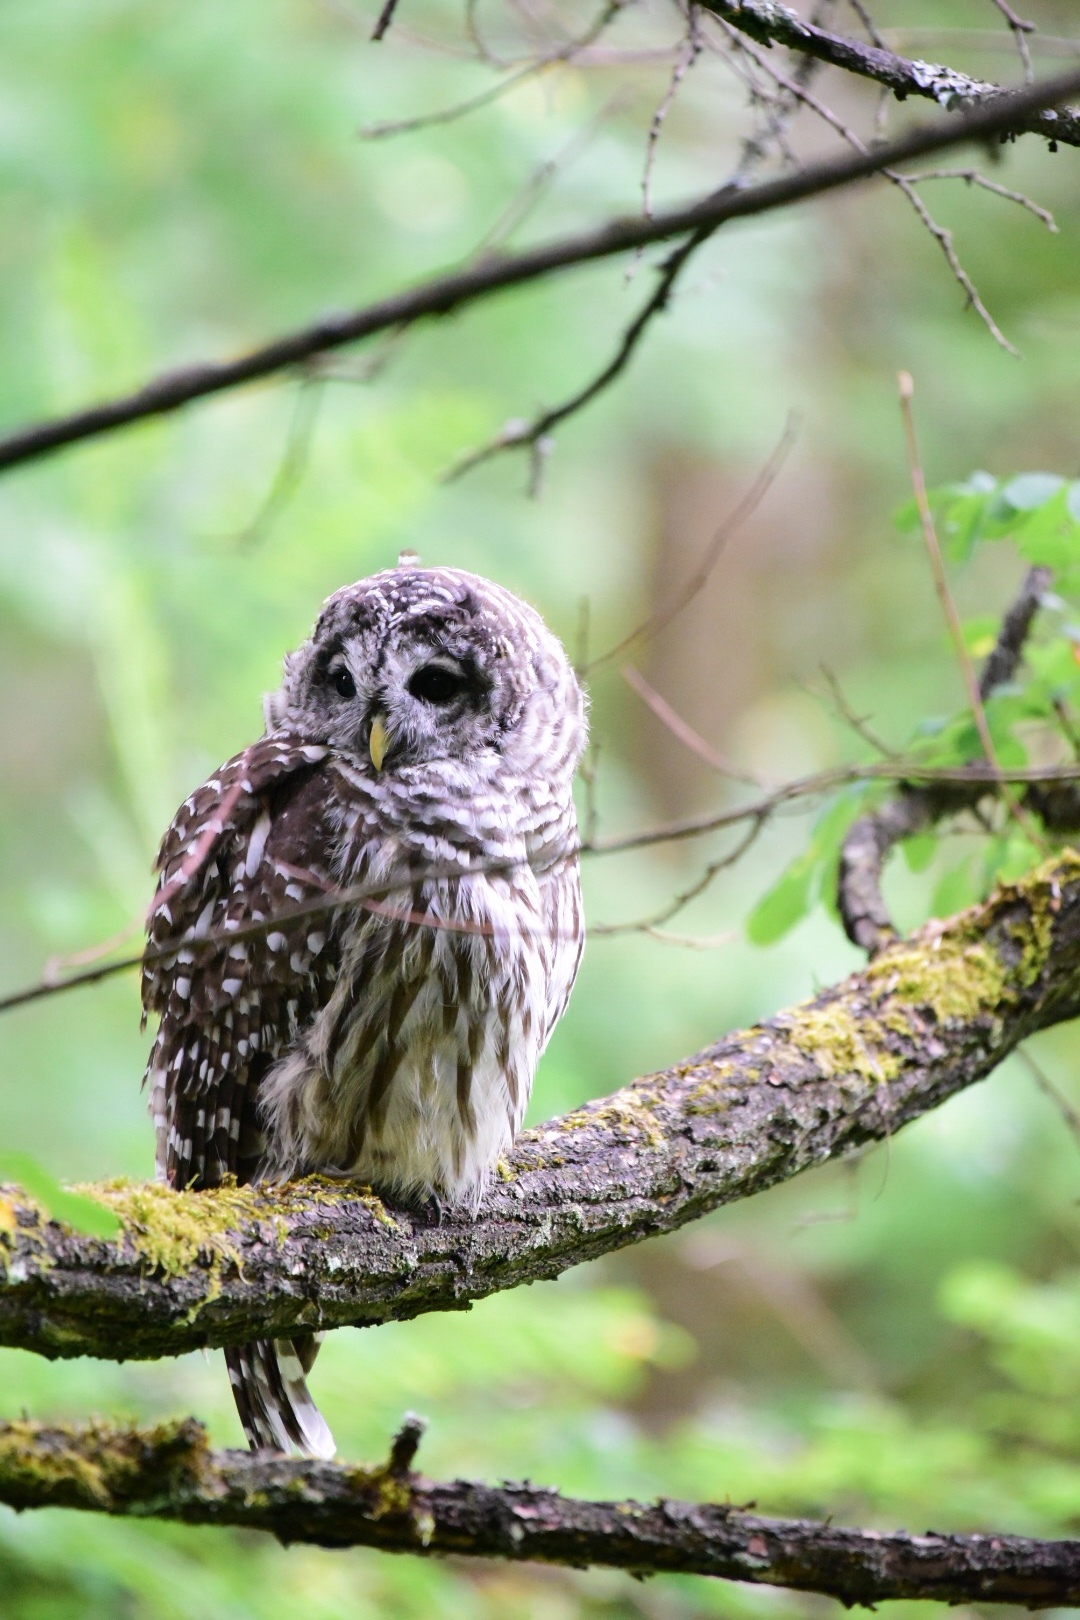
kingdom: Animalia
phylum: Chordata
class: Aves
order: Strigiformes
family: Strigidae
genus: Strix
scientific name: Strix varia
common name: Barred owl
